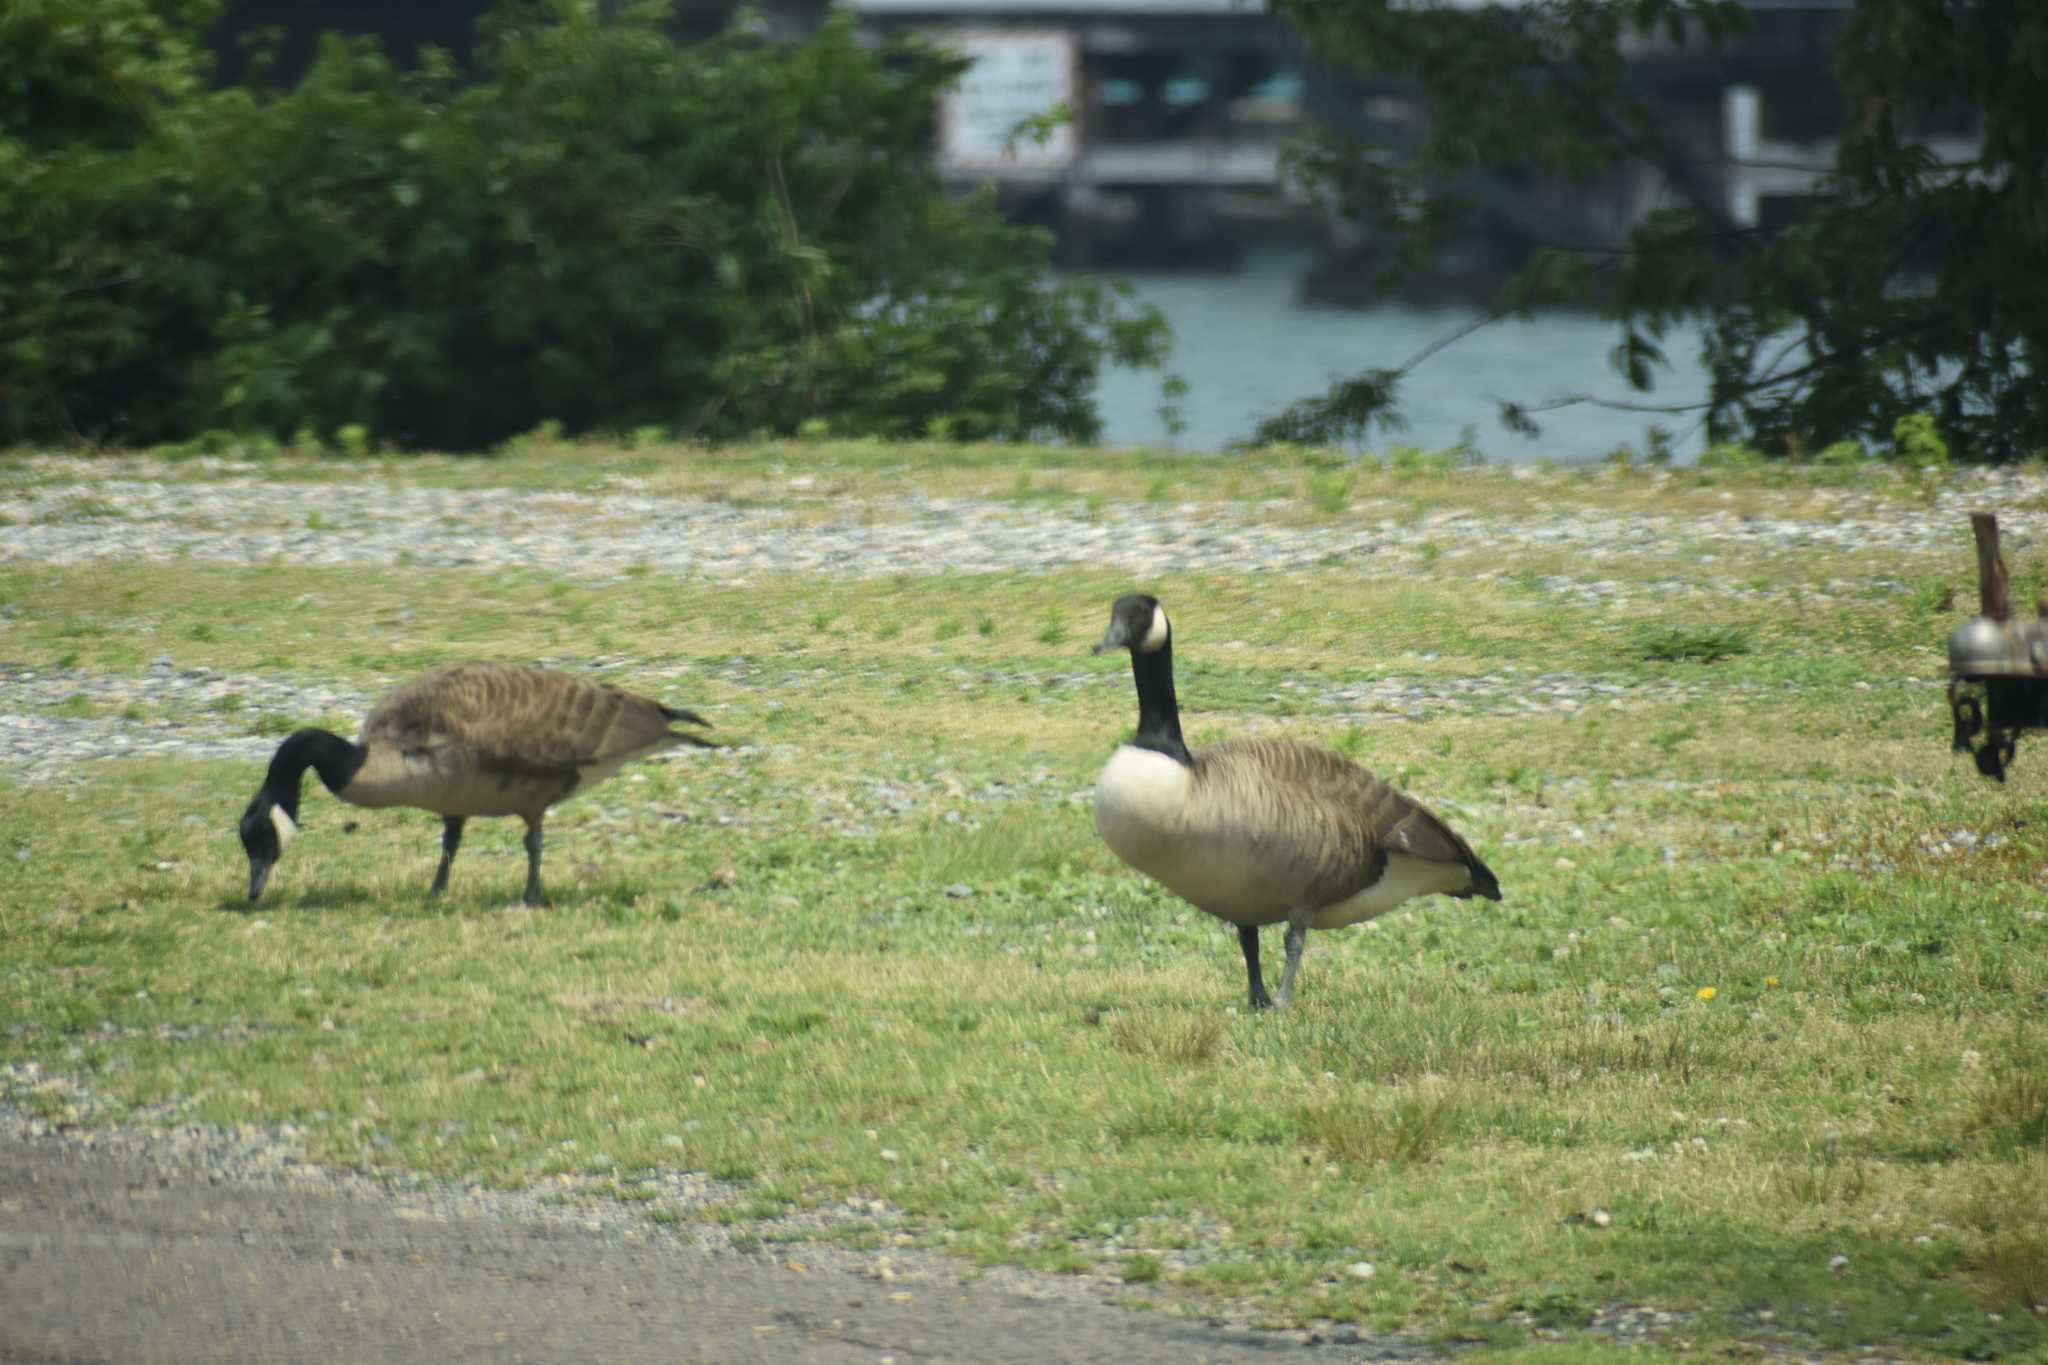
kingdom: Animalia
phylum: Chordata
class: Aves
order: Anseriformes
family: Anatidae
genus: Branta
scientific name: Branta canadensis
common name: Canada goose
